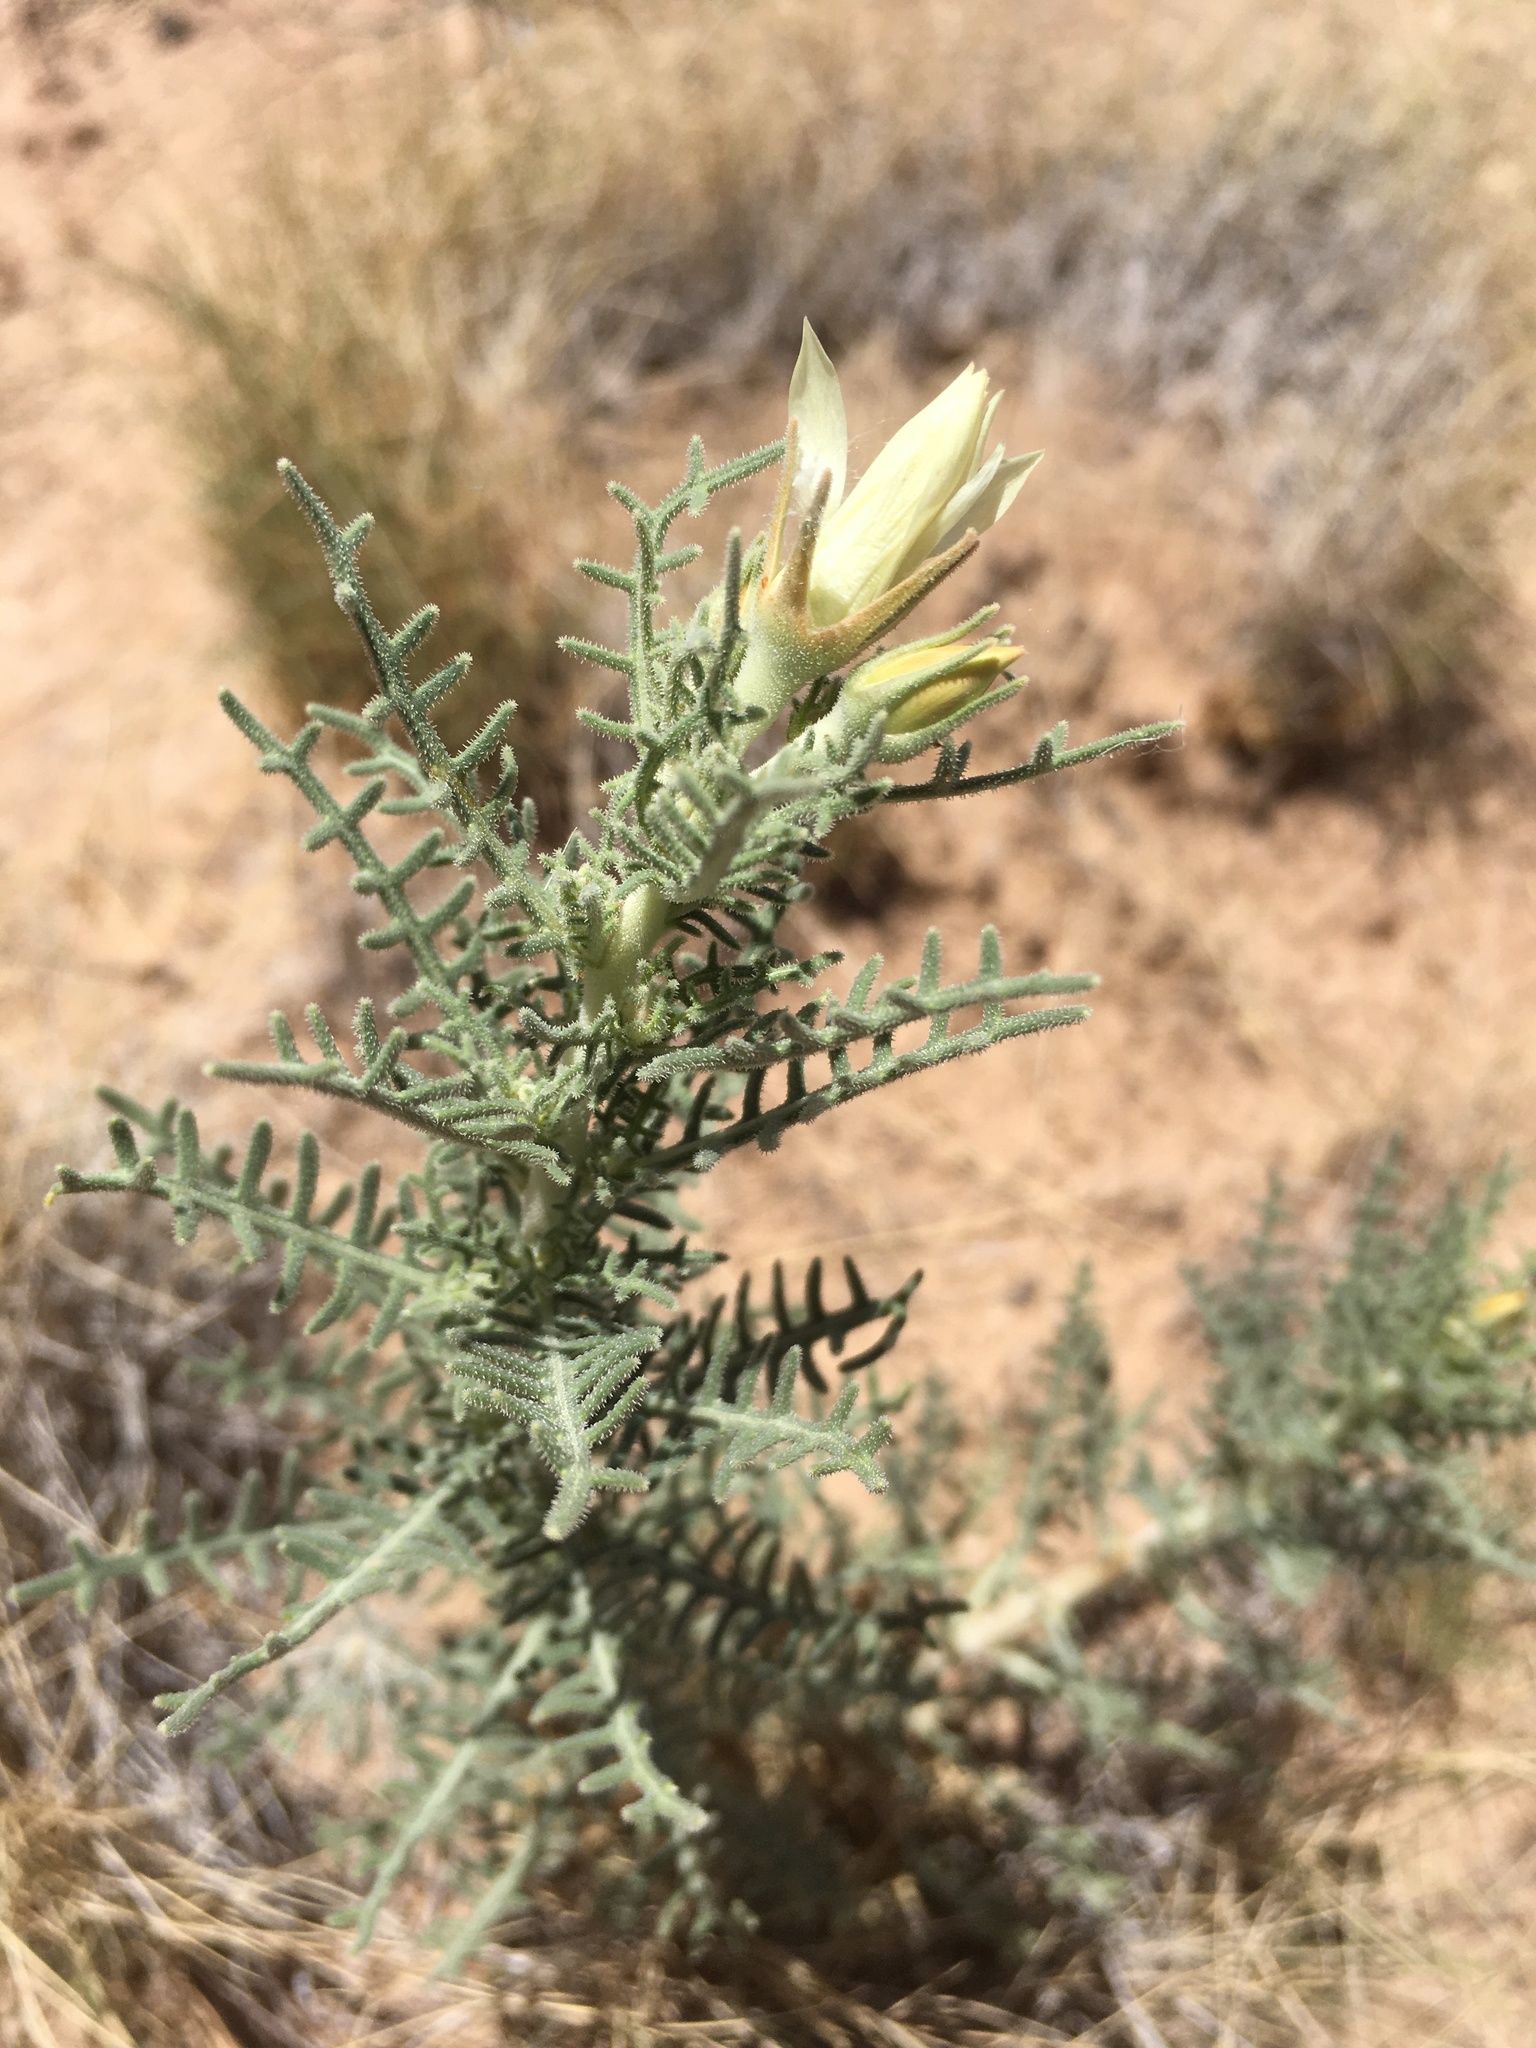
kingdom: Plantae
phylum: Tracheophyta
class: Magnoliopsida
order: Cornales
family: Loasaceae
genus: Mentzelia
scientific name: Mentzelia humilis
